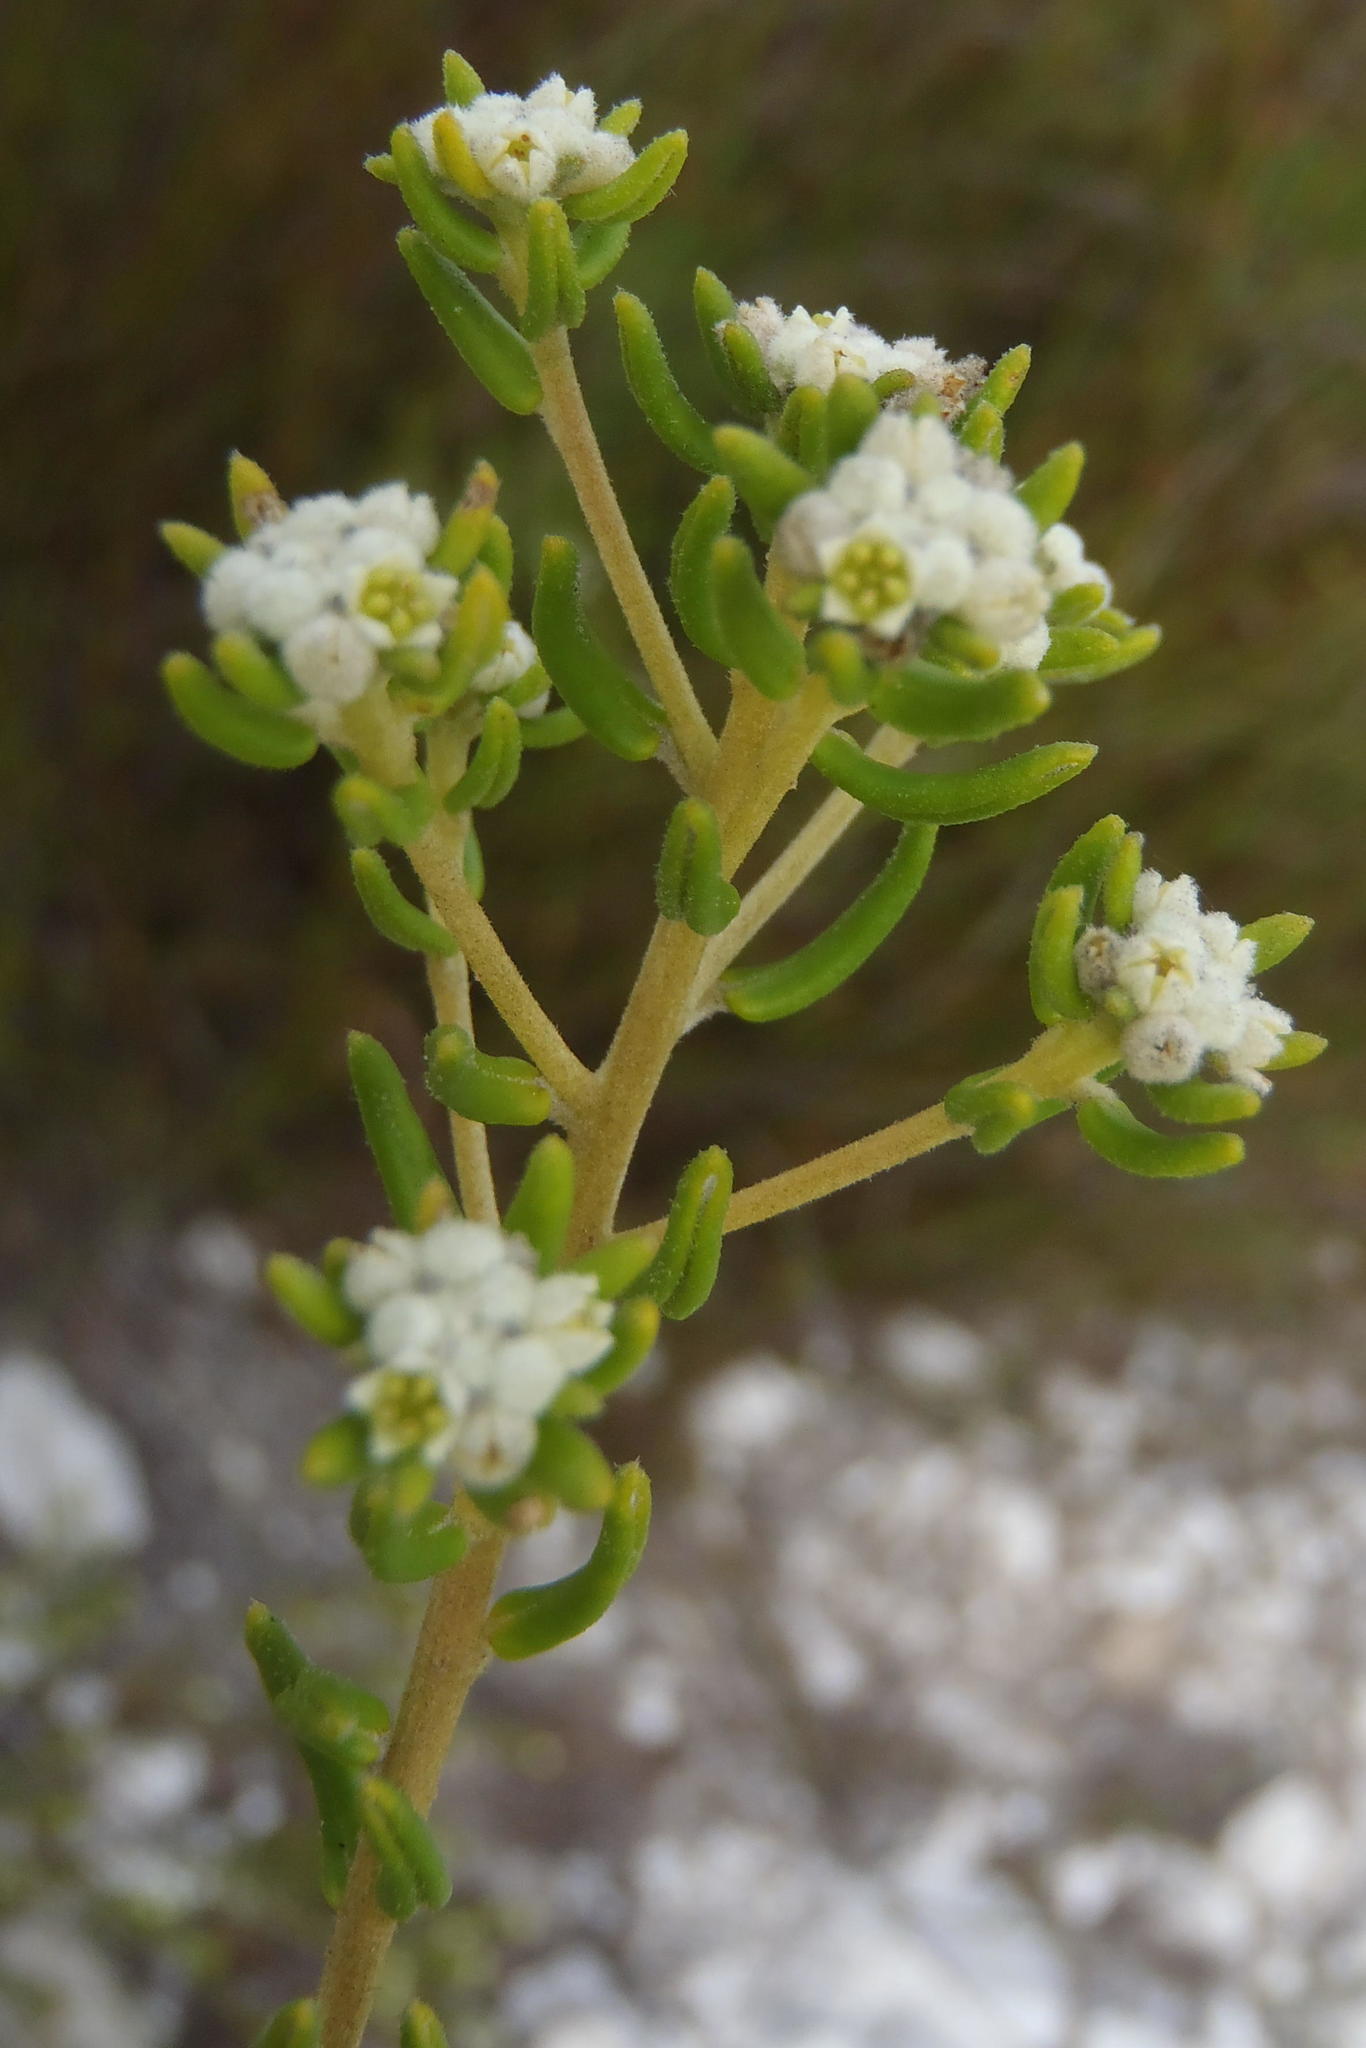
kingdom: Plantae
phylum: Tracheophyta
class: Magnoliopsida
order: Rosales
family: Rhamnaceae
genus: Phylica
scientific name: Phylica lasiocarpa
